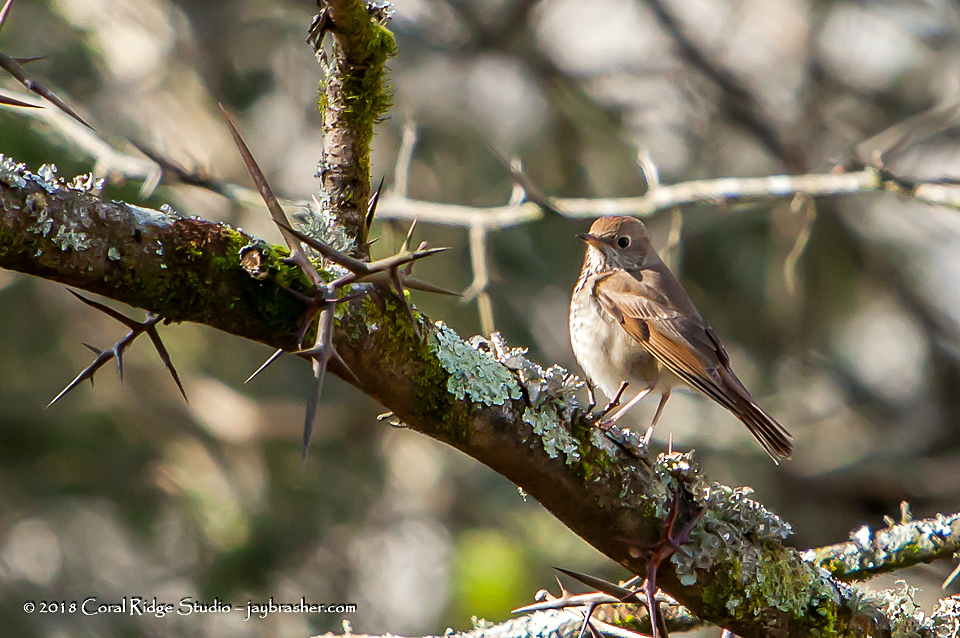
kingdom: Animalia
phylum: Chordata
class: Aves
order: Passeriformes
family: Turdidae
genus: Catharus
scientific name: Catharus guttatus
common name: Hermit thrush
